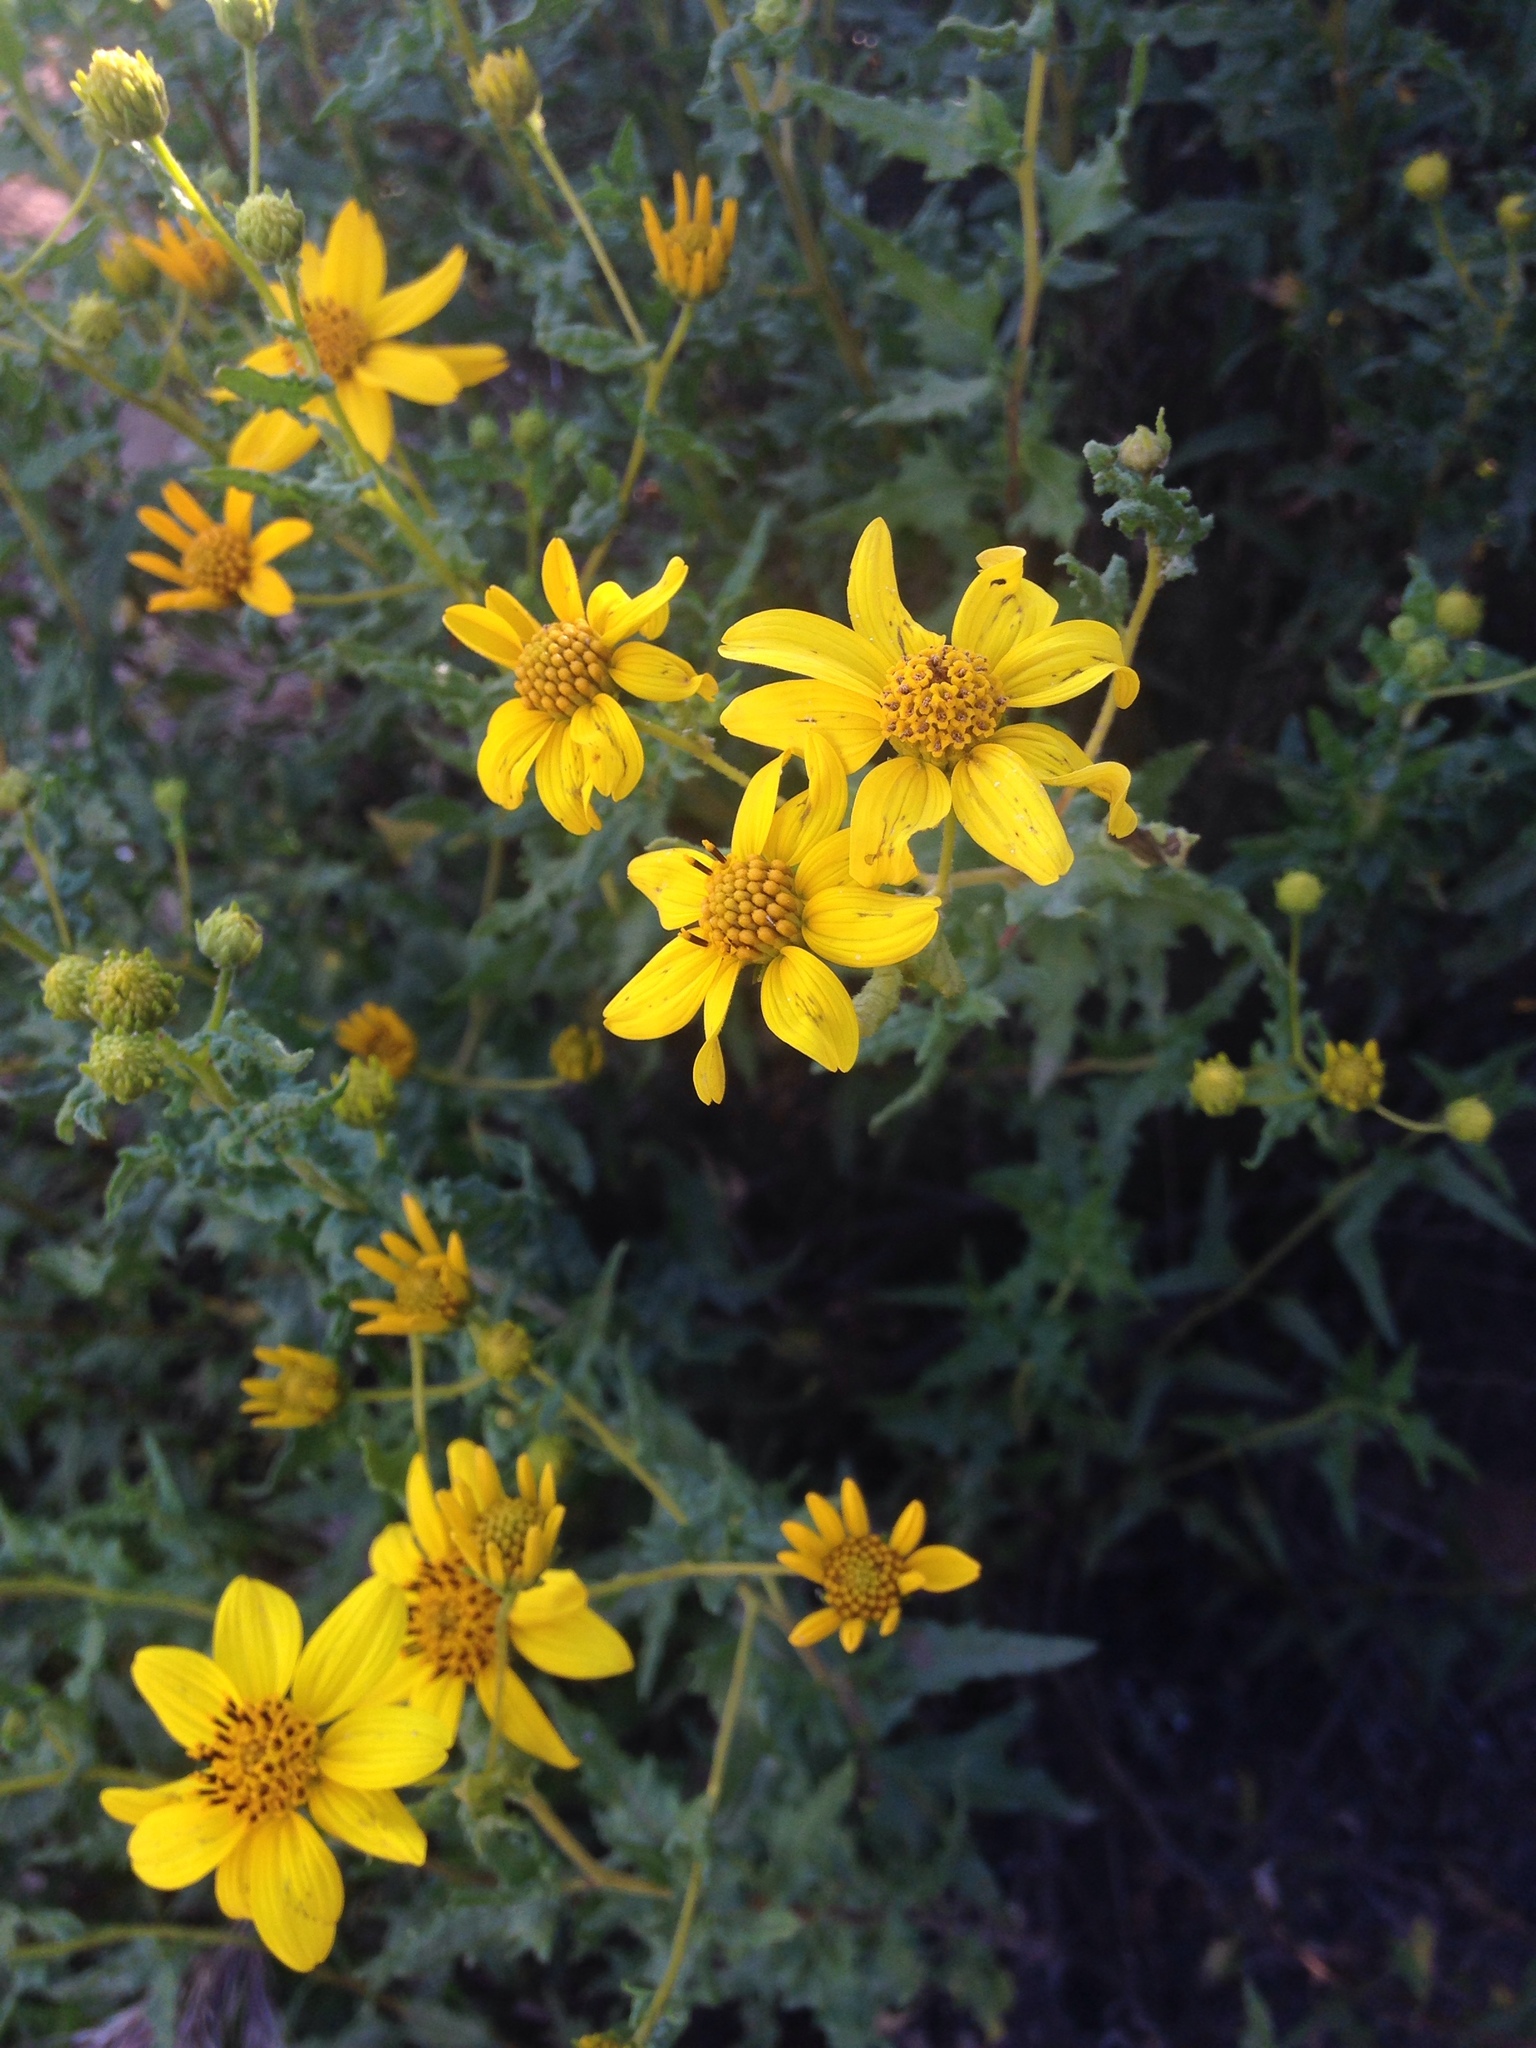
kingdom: Plantae
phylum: Tracheophyta
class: Magnoliopsida
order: Asterales
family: Asteraceae
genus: Bahiopsis
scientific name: Bahiopsis laciniata
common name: San diego county viguiera
